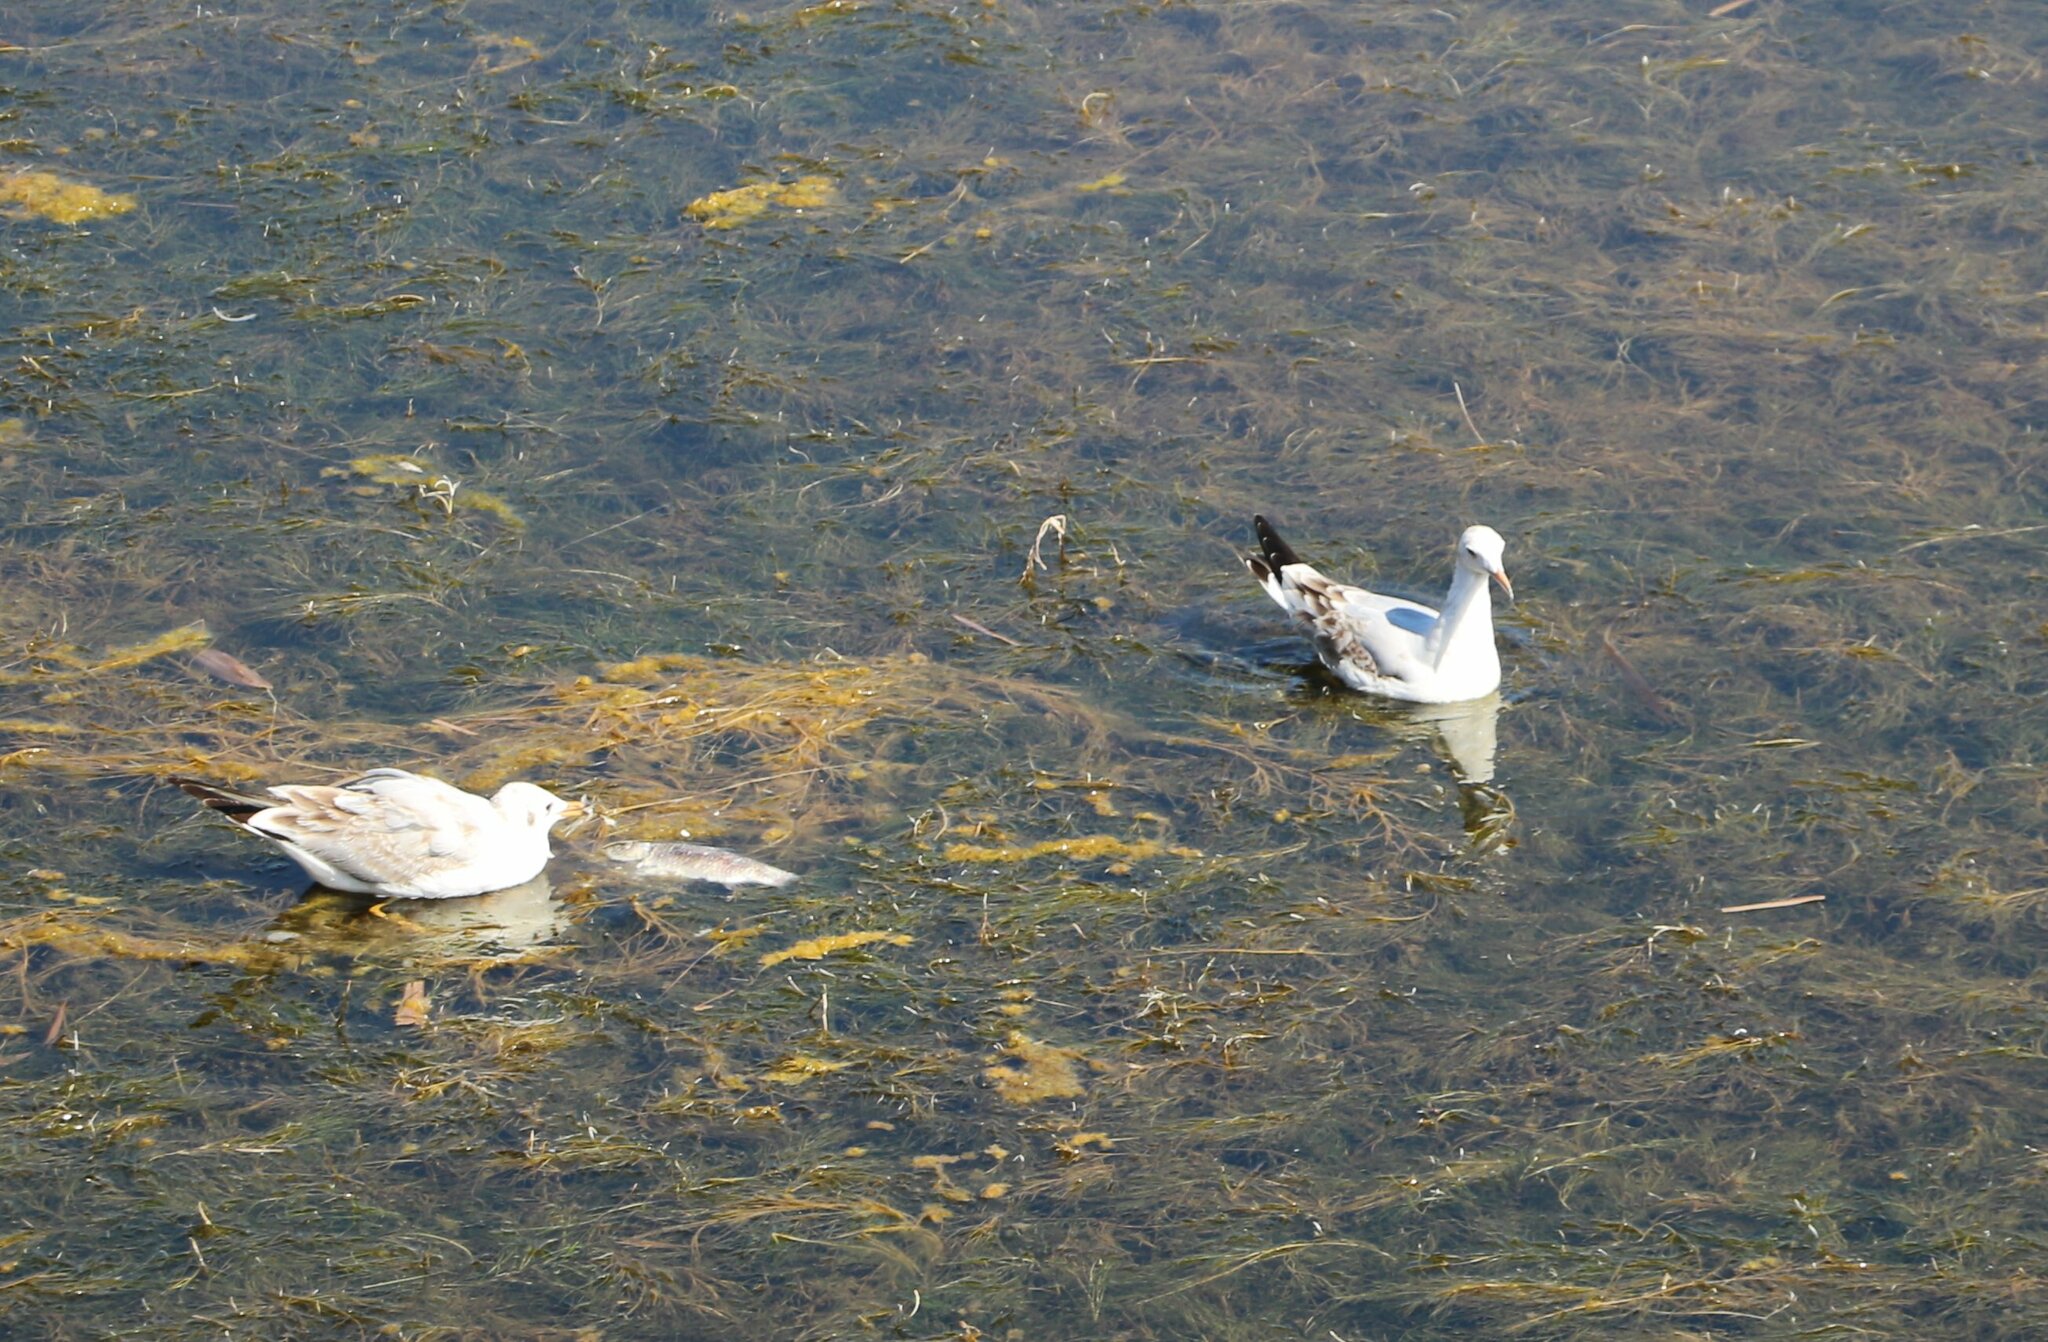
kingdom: Animalia
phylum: Chordata
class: Aves
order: Charadriiformes
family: Laridae
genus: Chroicocephalus
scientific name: Chroicocephalus ridibundus
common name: Black-headed gull
